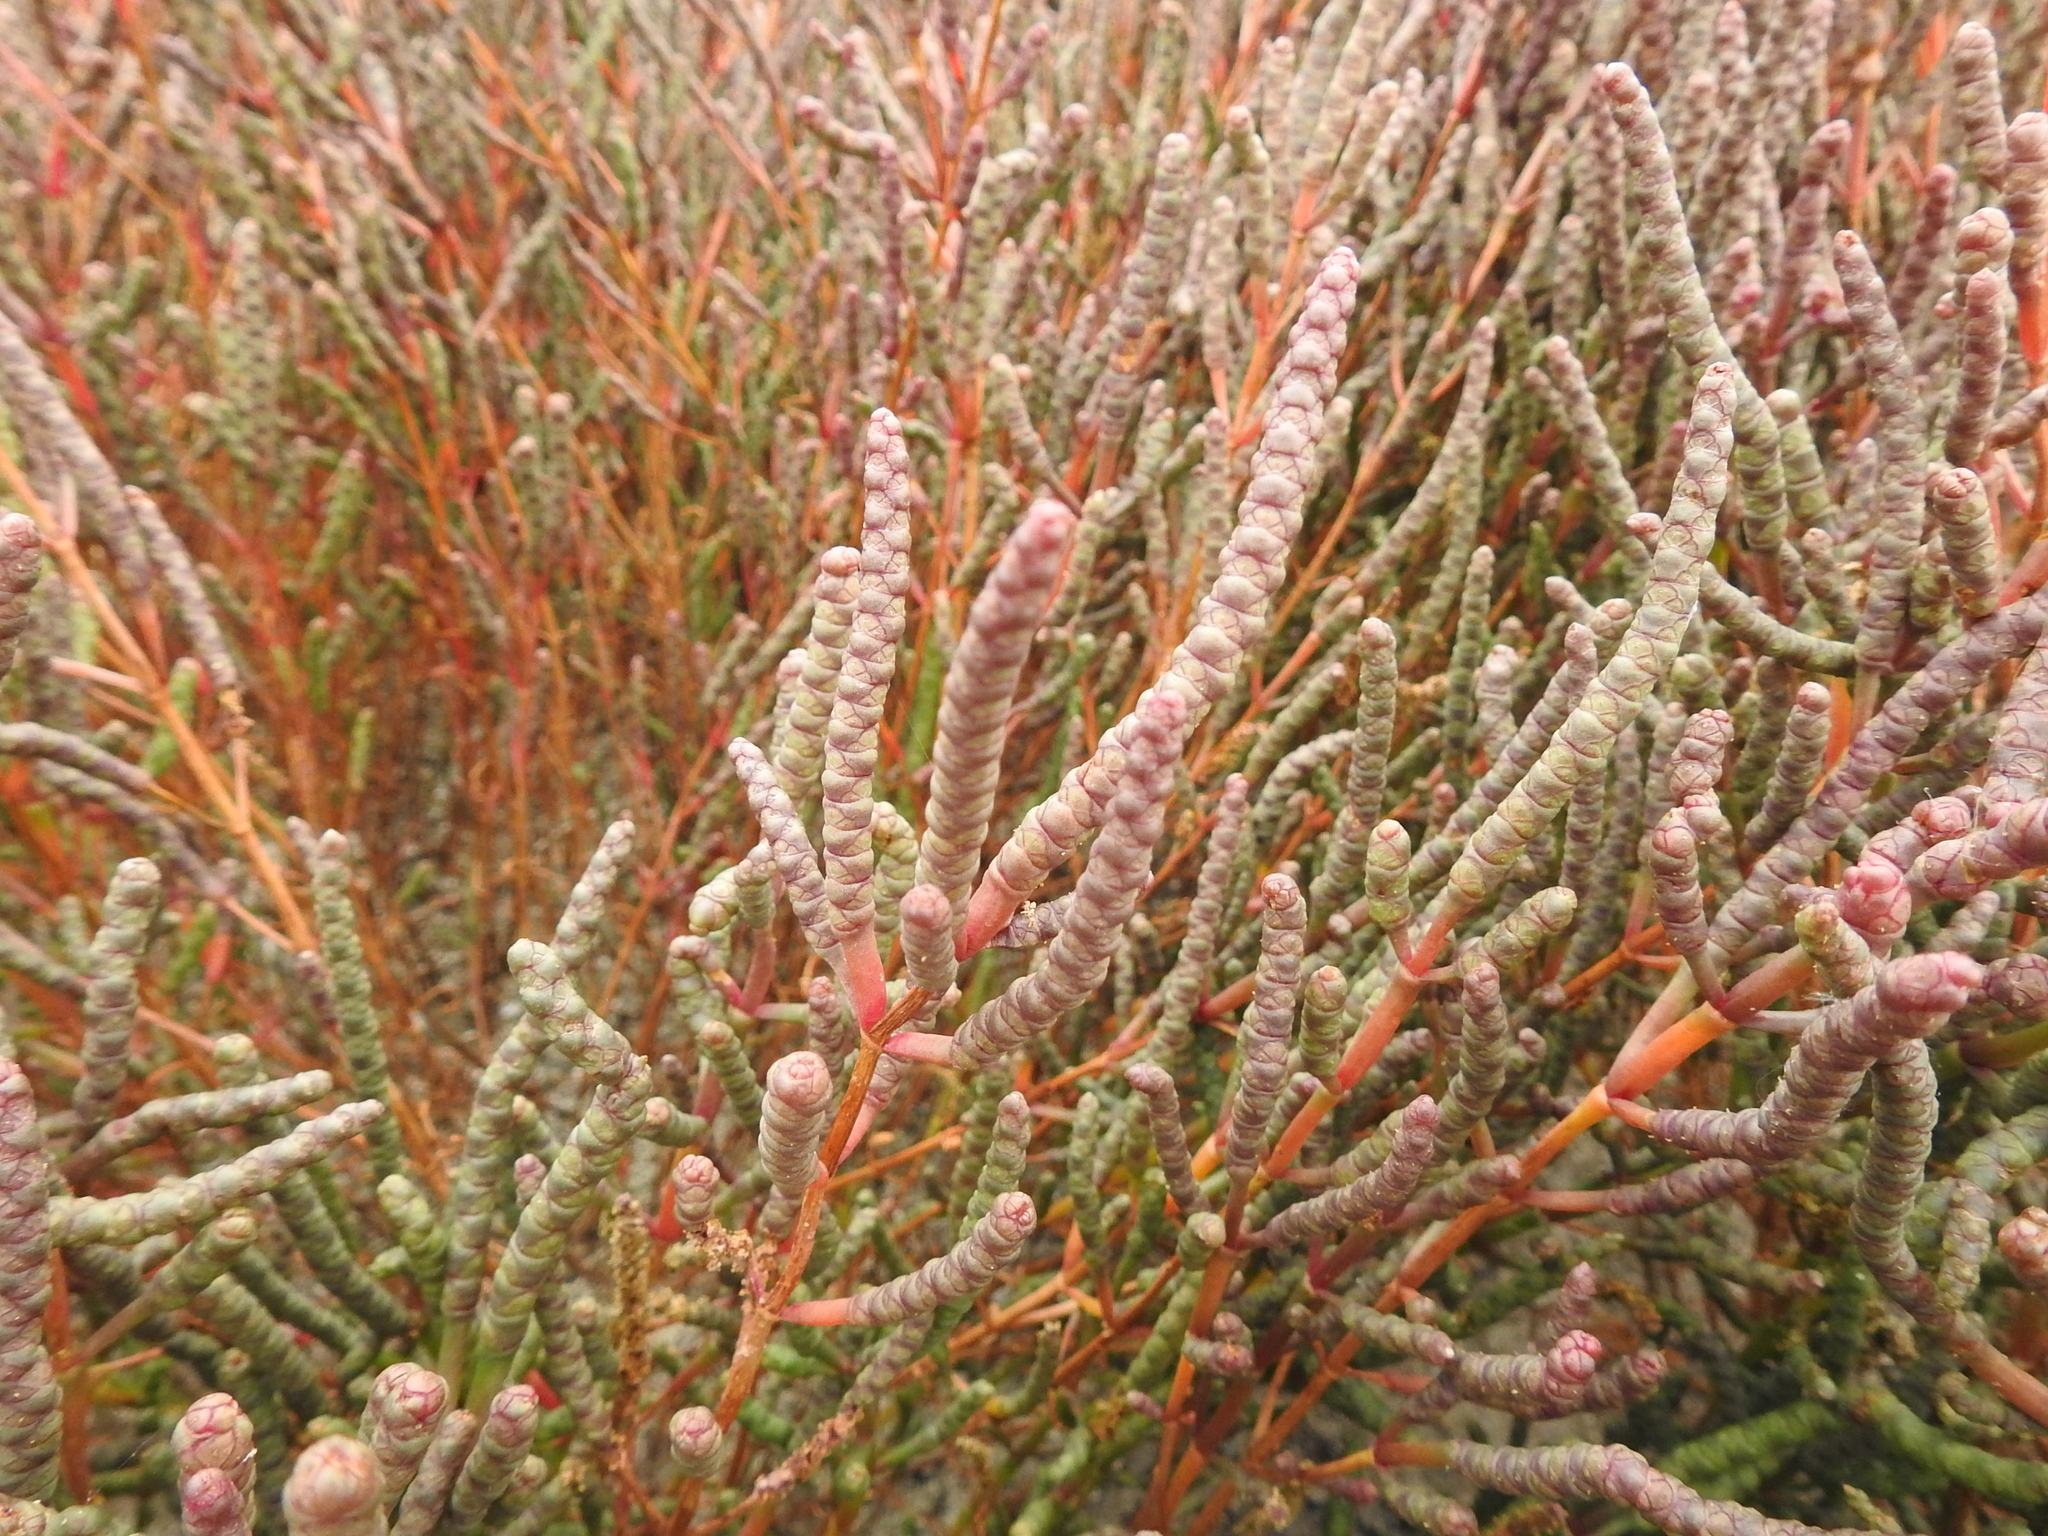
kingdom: Plantae
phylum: Tracheophyta
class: Magnoliopsida
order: Caryophyllales
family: Amaranthaceae
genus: Salicornia
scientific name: Salicornia perennans
